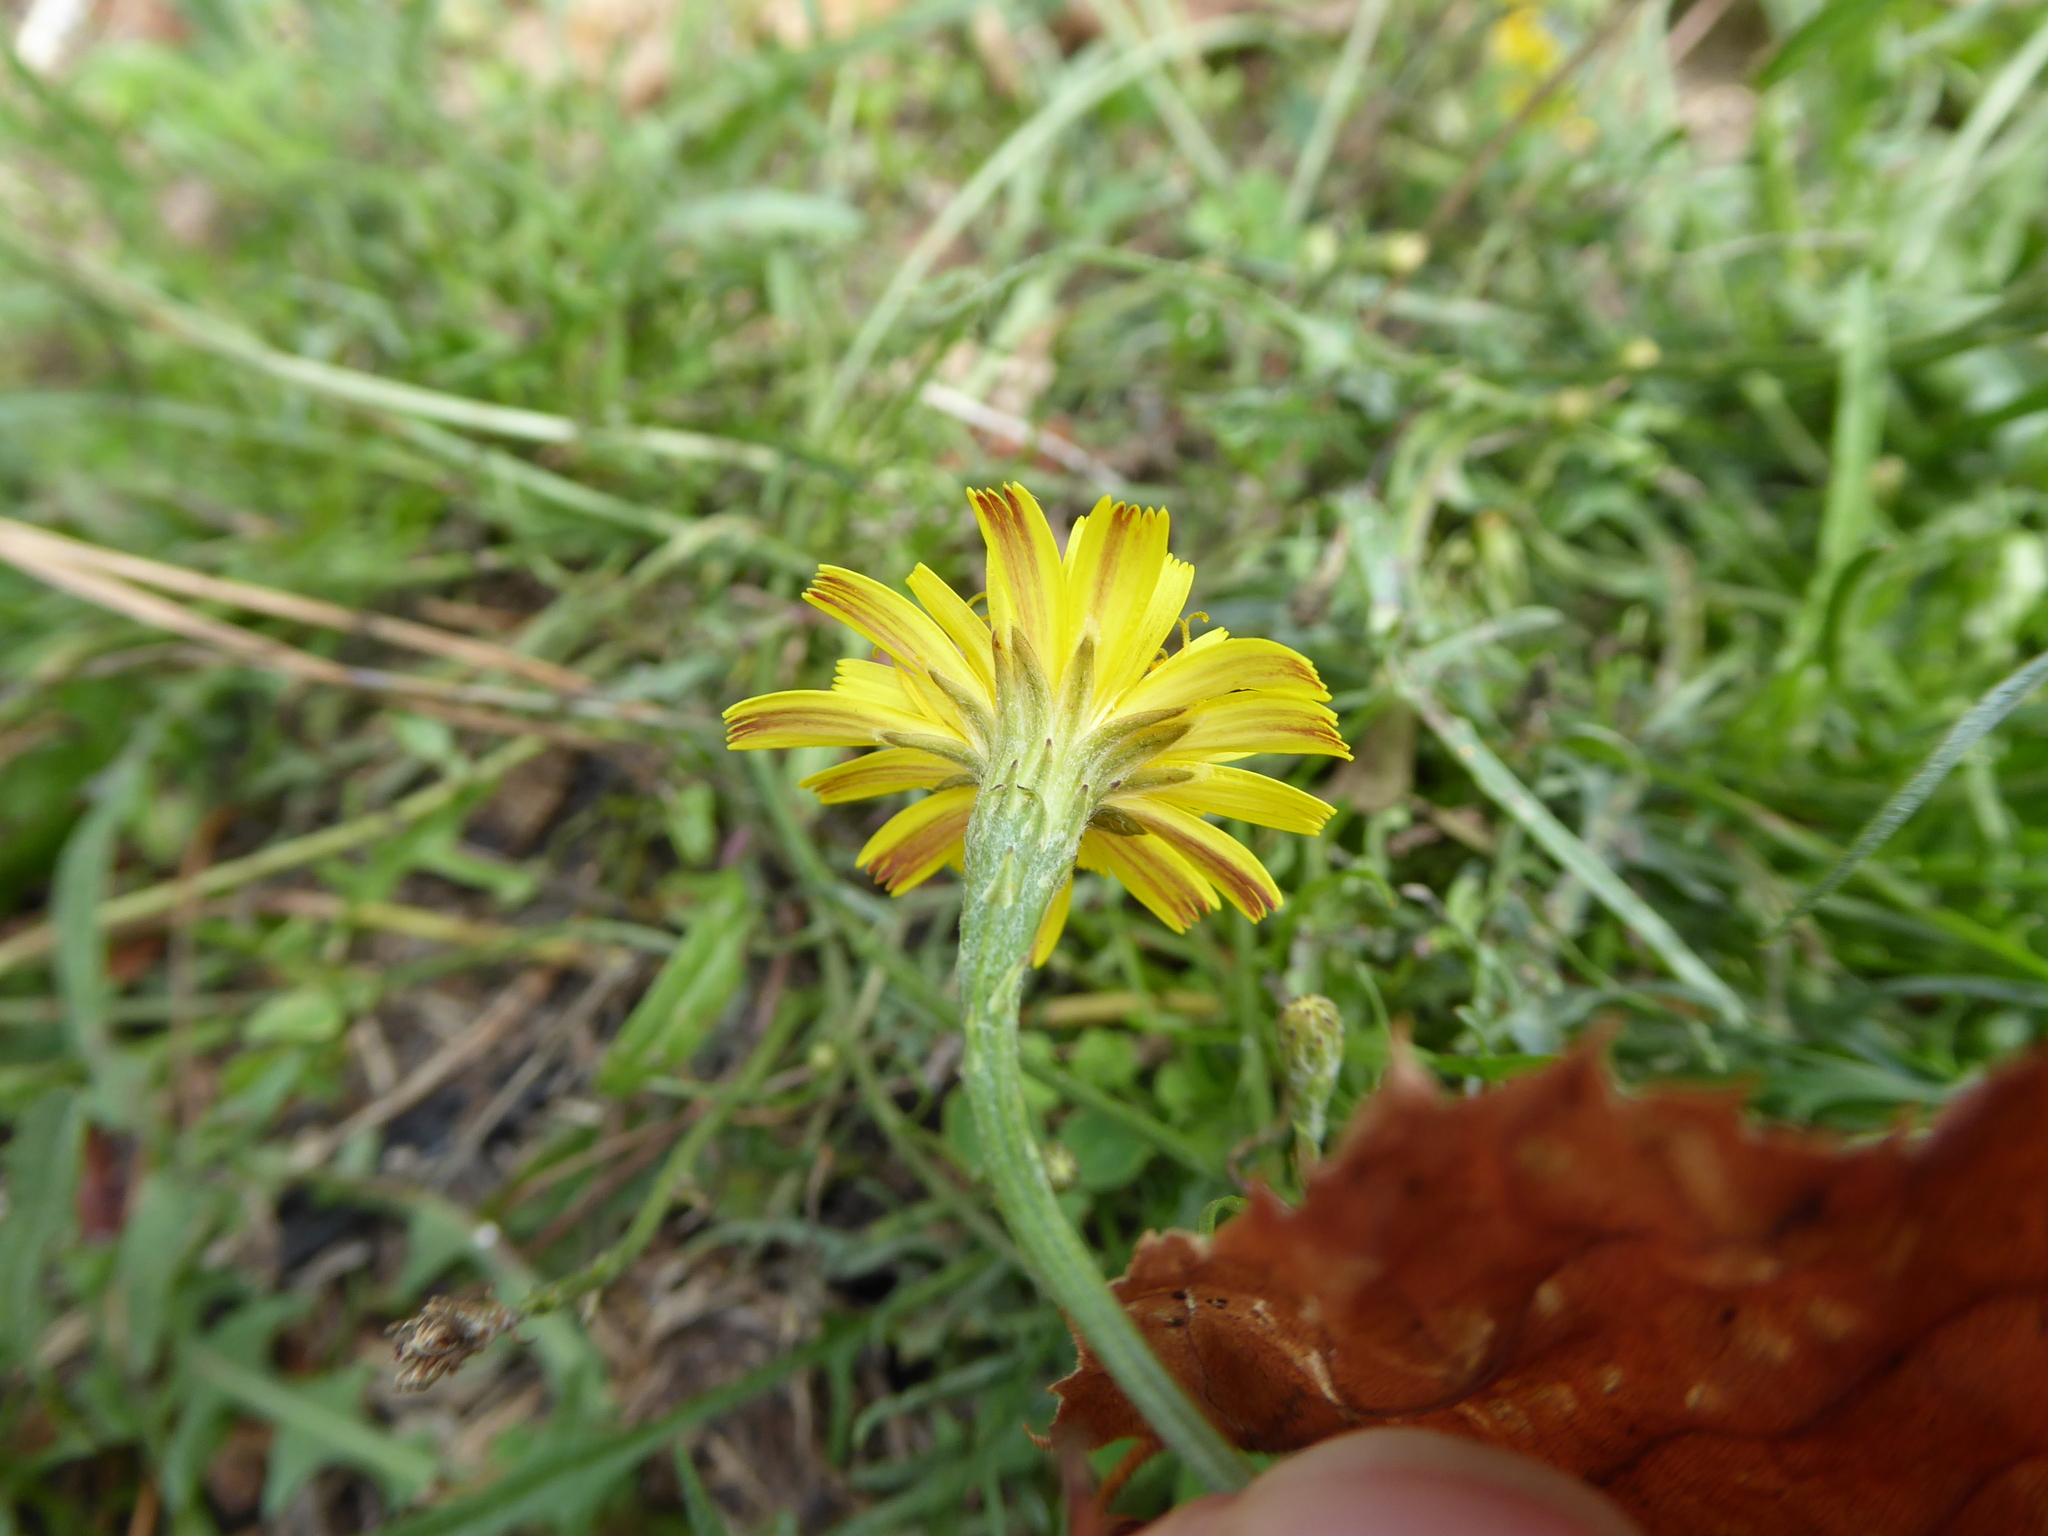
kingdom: Plantae
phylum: Tracheophyta
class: Magnoliopsida
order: Asterales
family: Asteraceae
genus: Scorzoneroides
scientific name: Scorzoneroides autumnalis
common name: Autumn hawkbit
